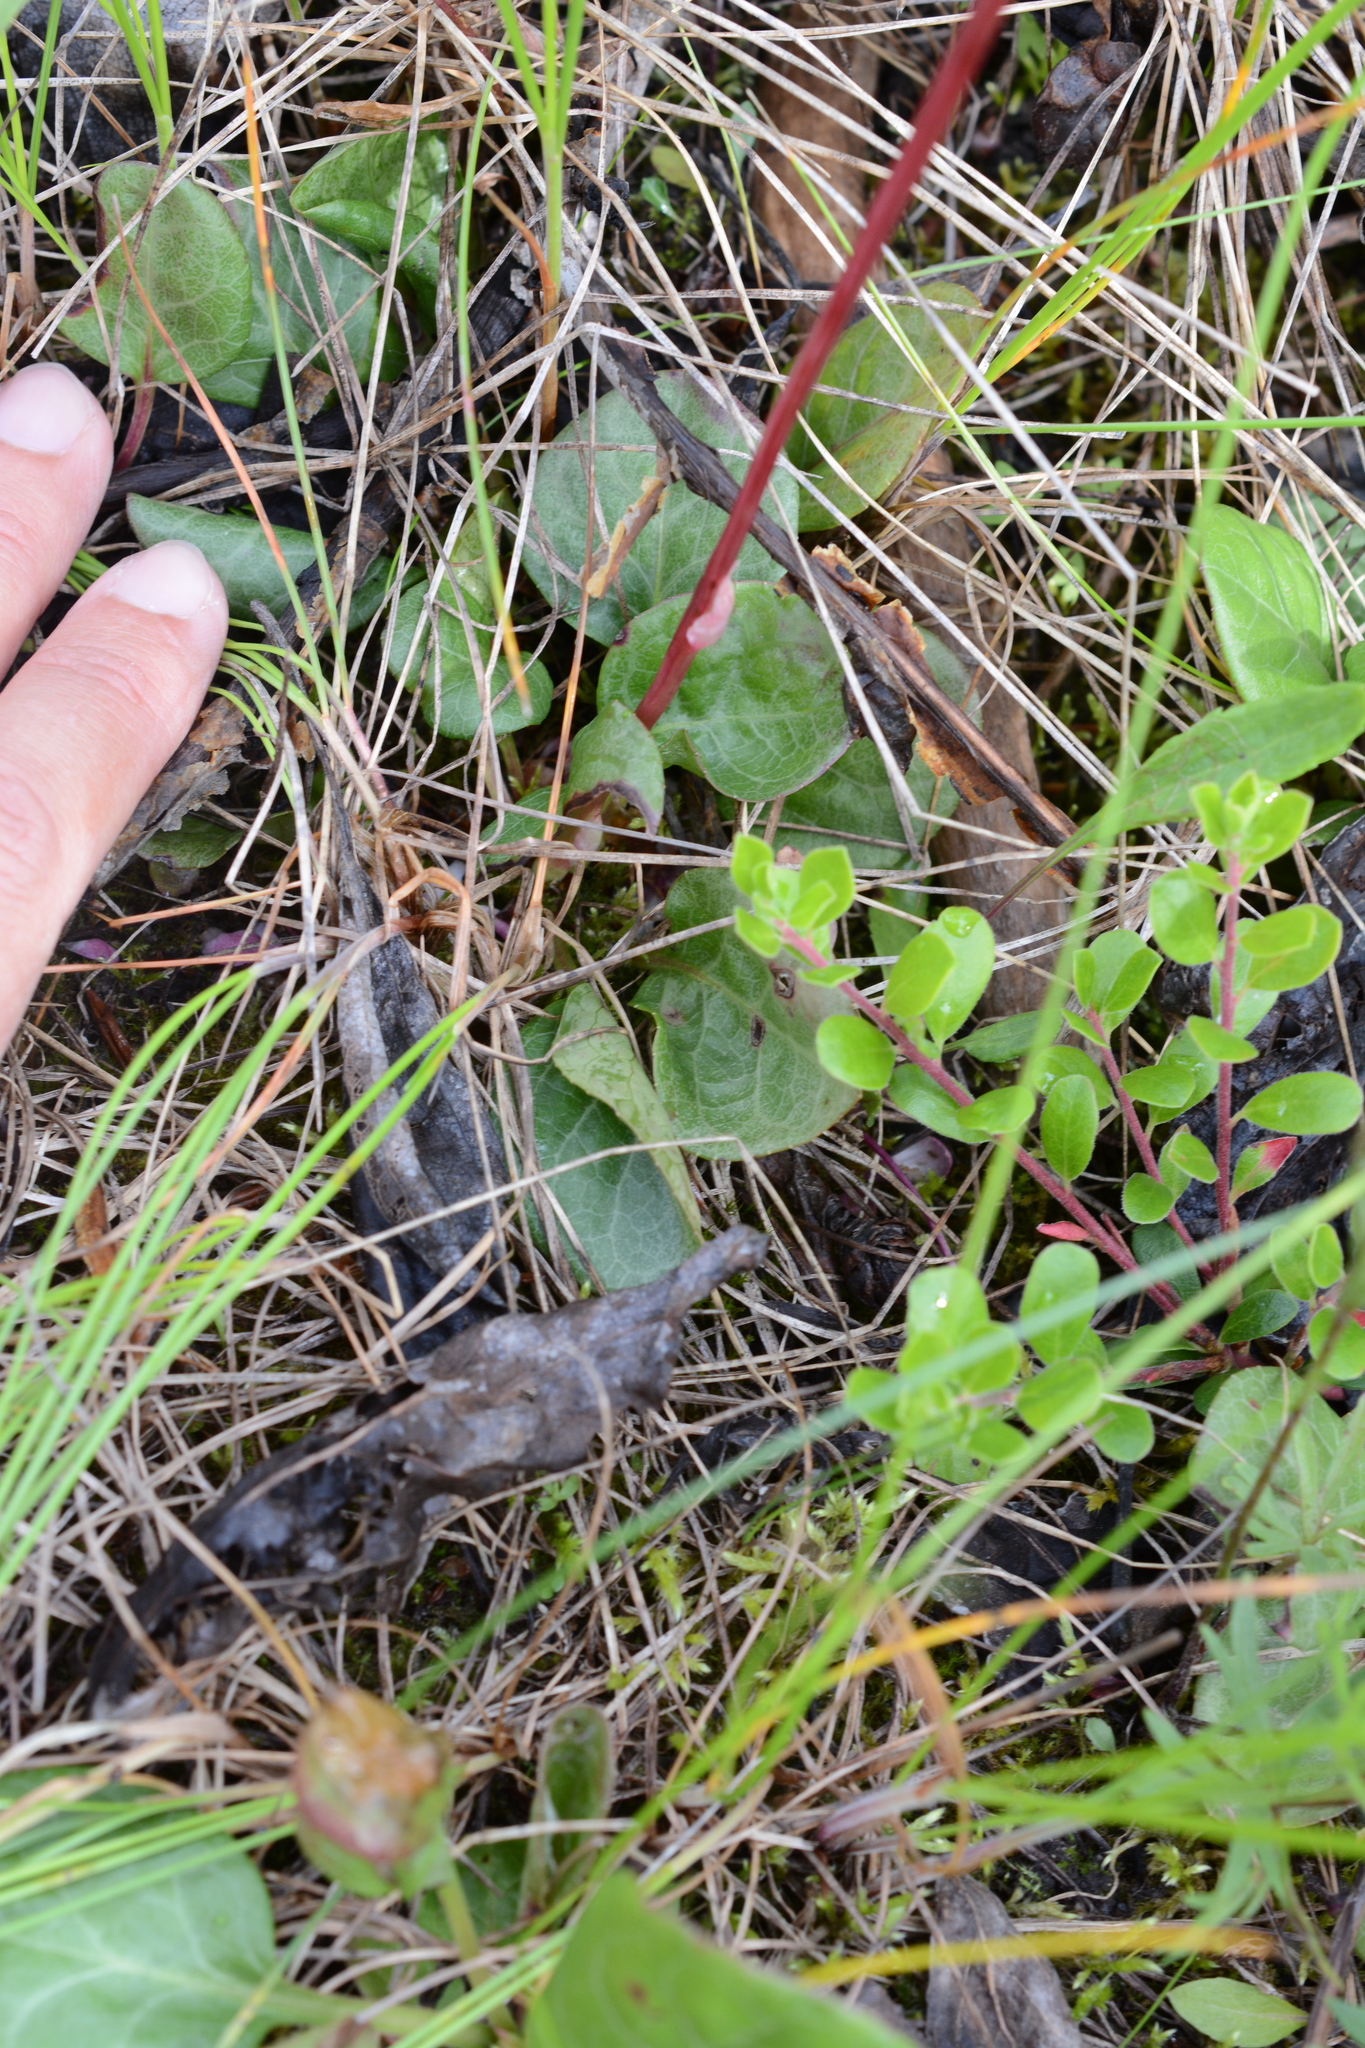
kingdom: Plantae
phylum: Tracheophyta
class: Magnoliopsida
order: Ericales
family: Ericaceae
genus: Pyrola
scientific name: Pyrola asarifolia
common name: Bog wintergreen
